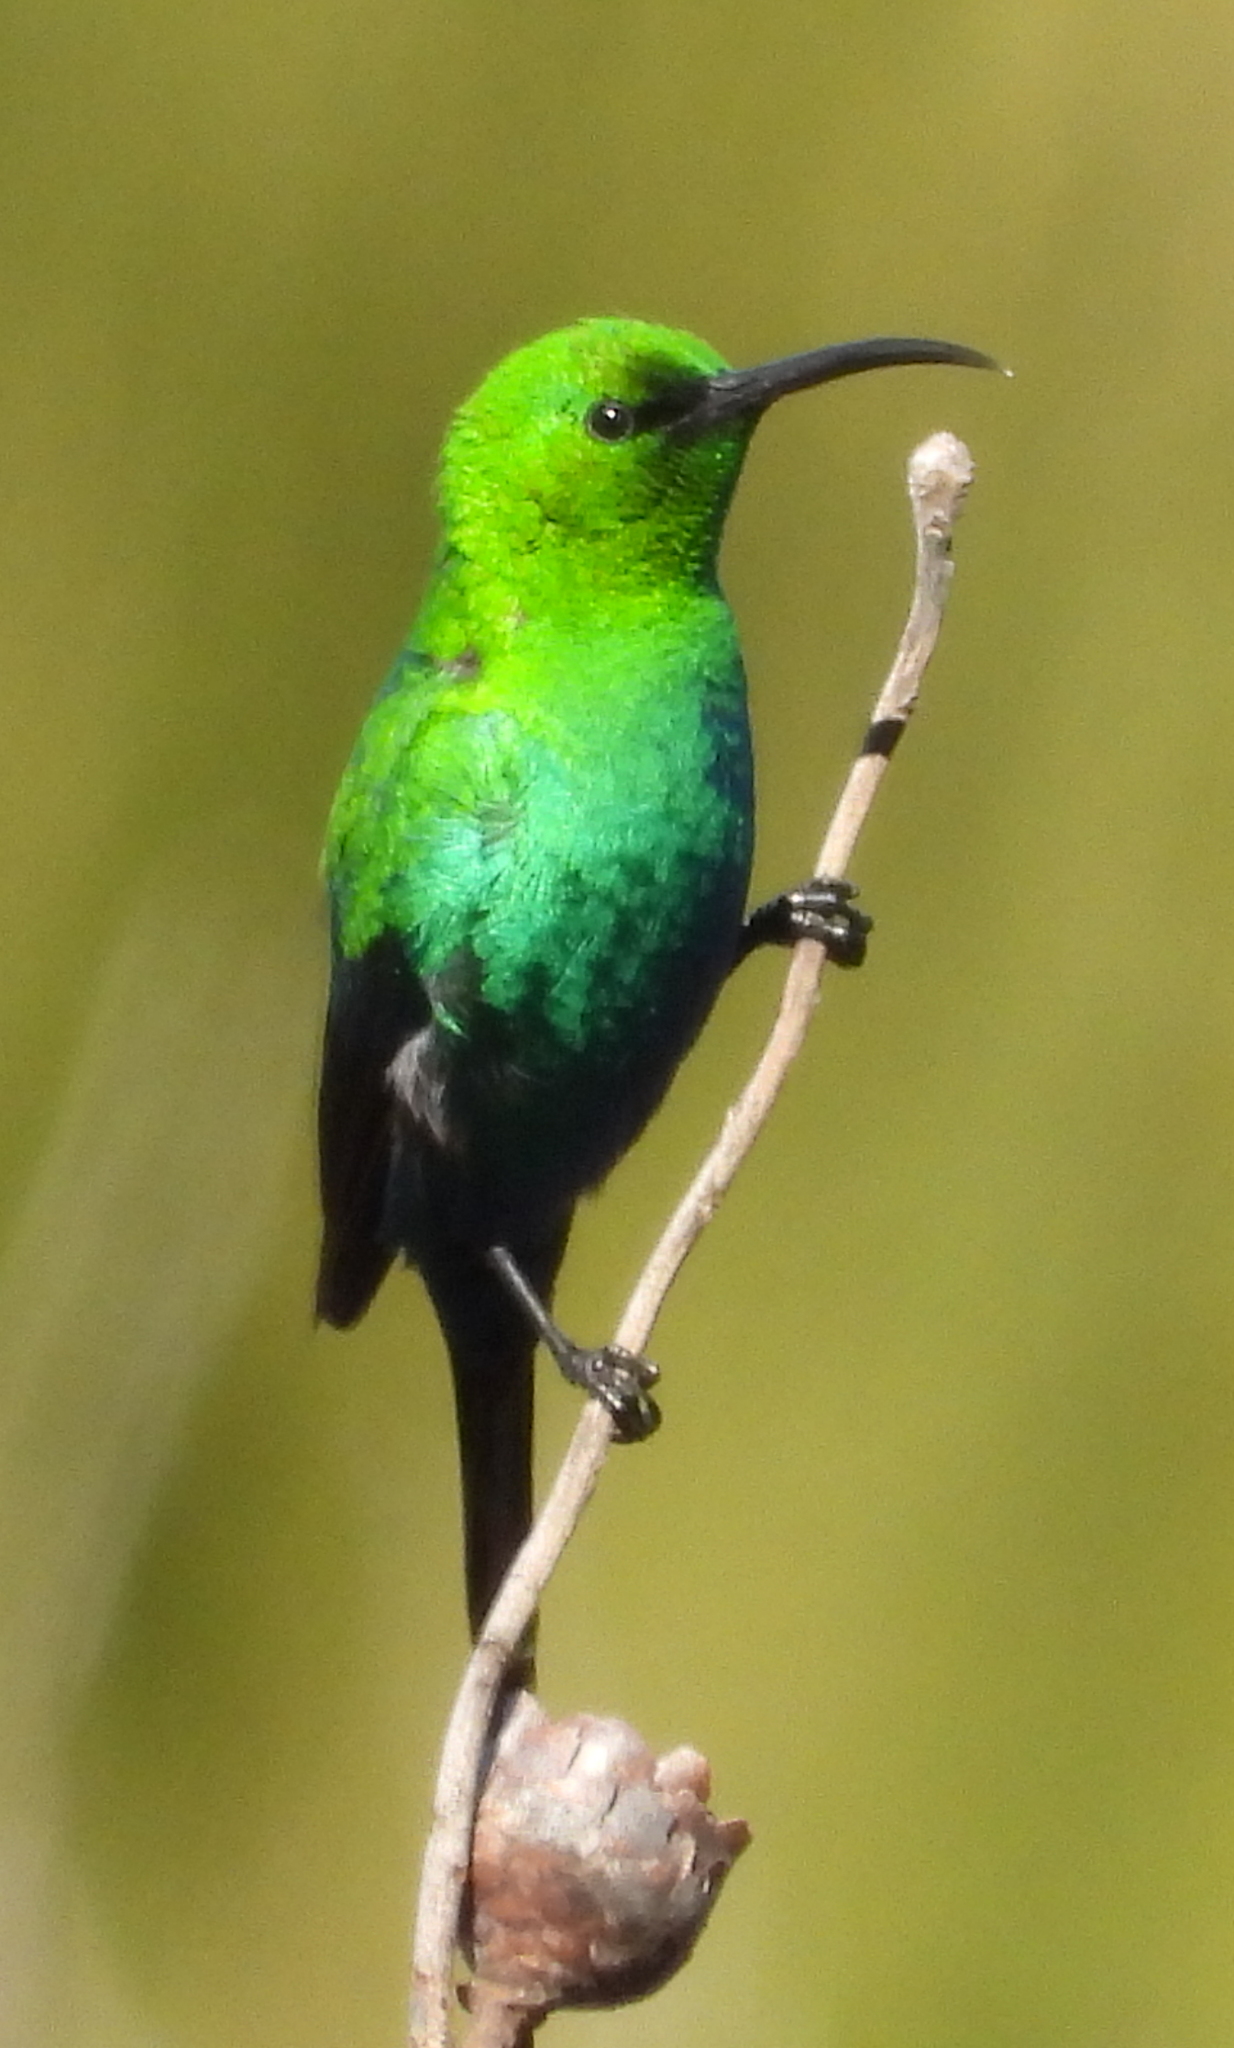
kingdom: Animalia
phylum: Chordata
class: Aves
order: Passeriformes
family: Nectariniidae
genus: Nectarinia
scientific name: Nectarinia famosa
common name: Malachite sunbird
